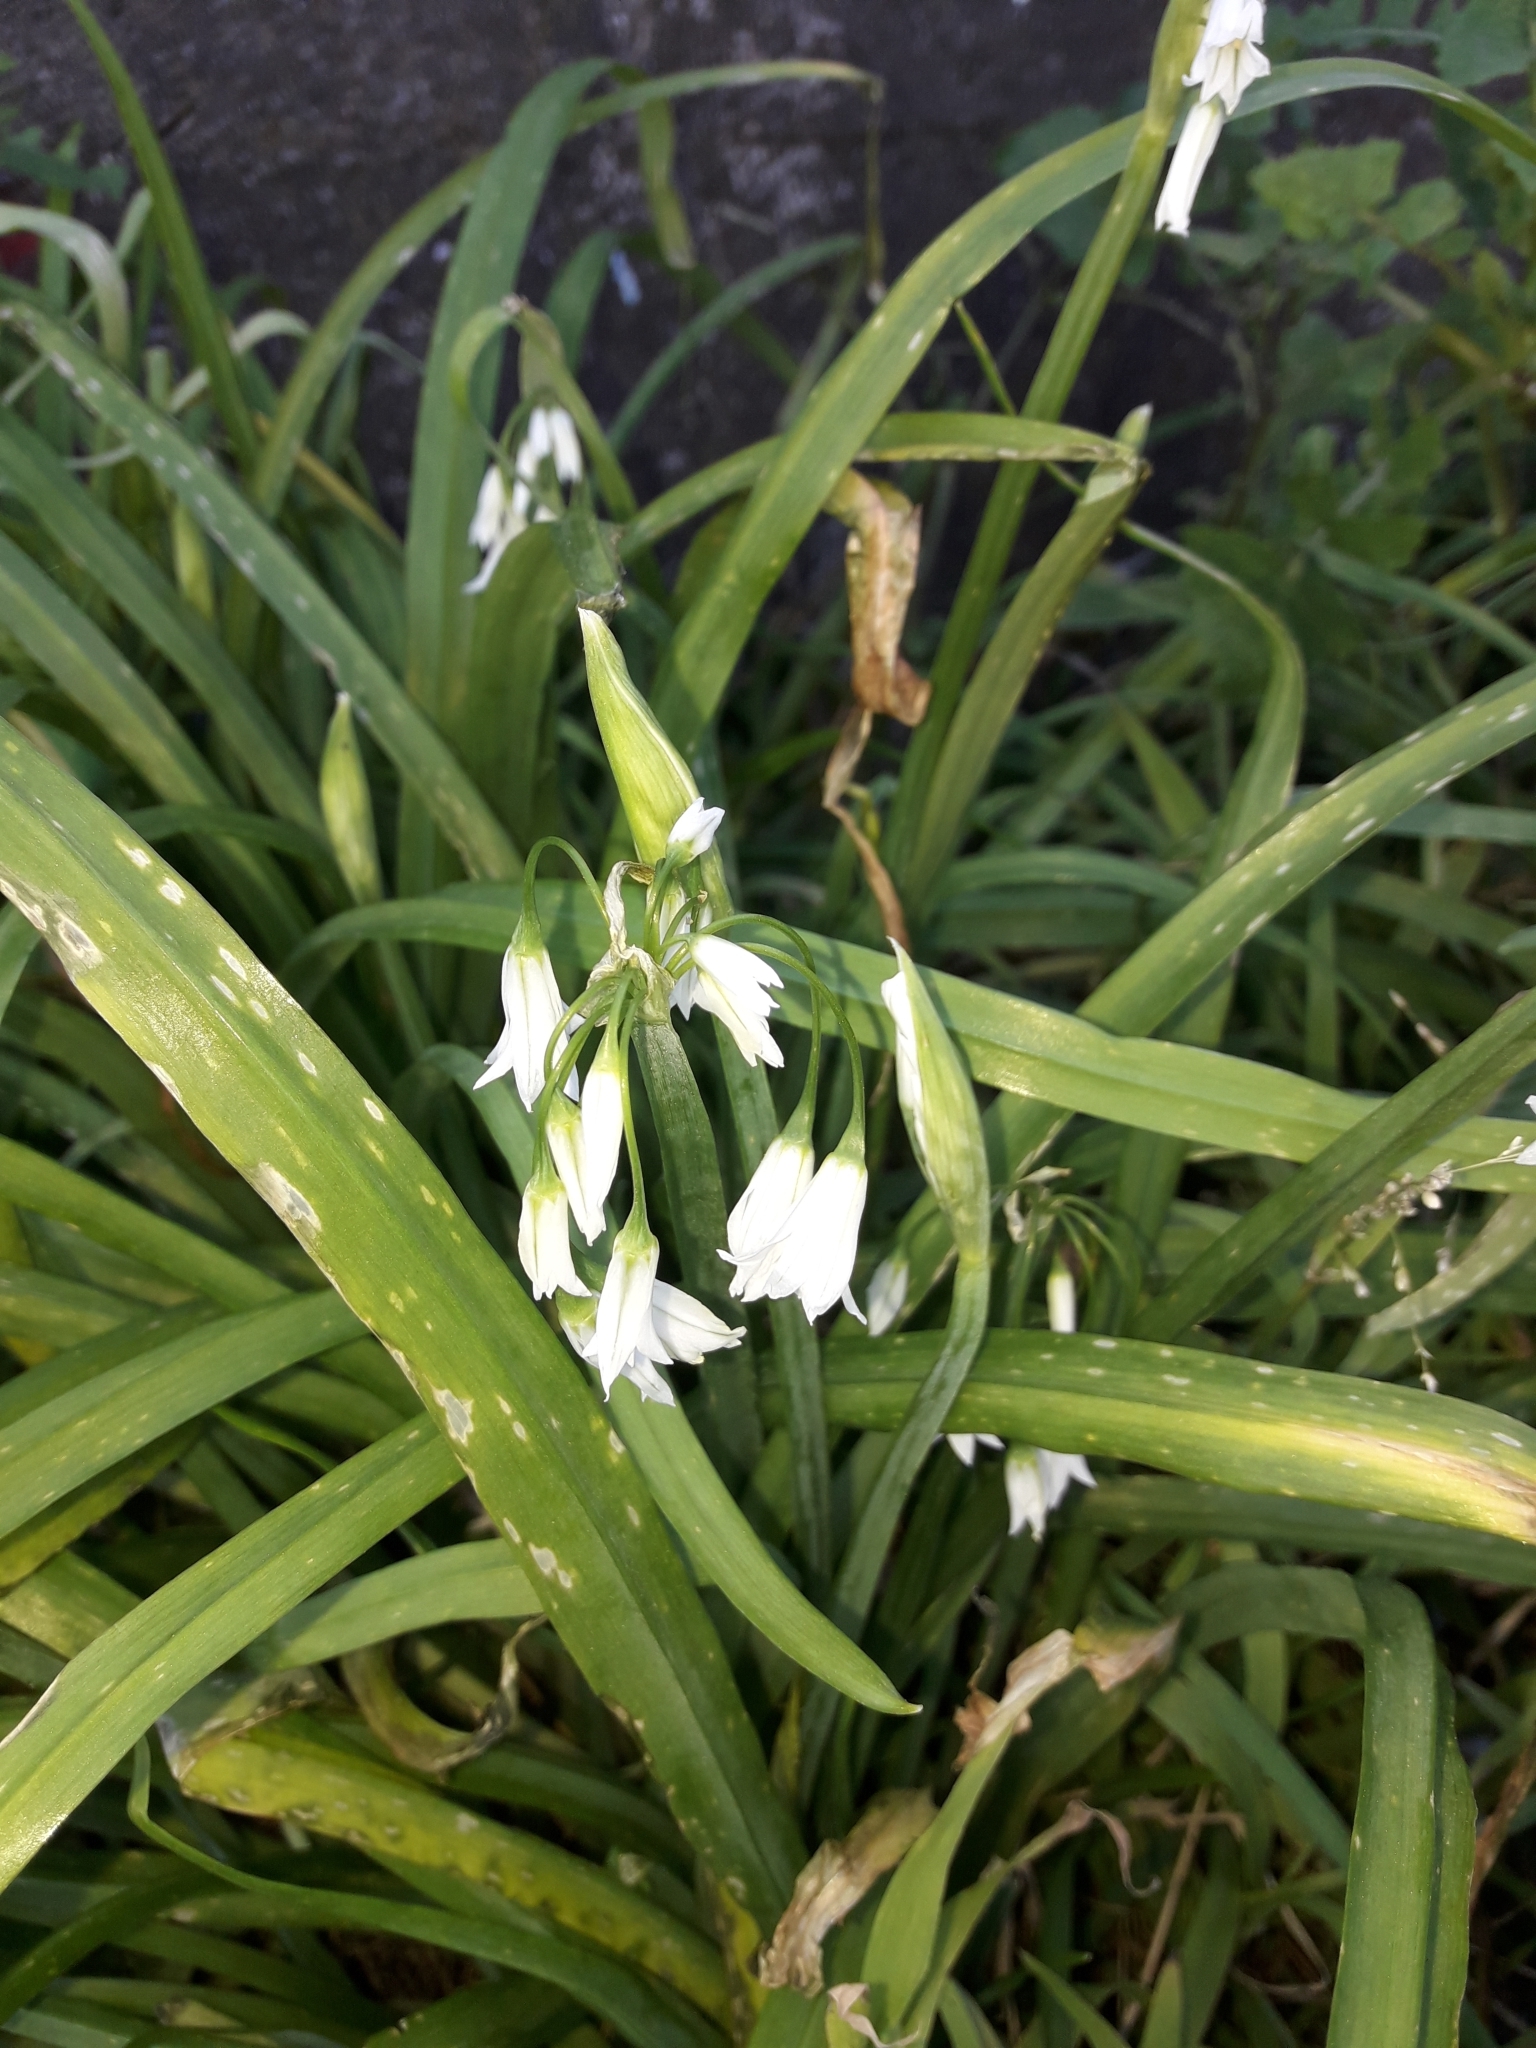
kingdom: Plantae
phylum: Tracheophyta
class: Liliopsida
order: Asparagales
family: Amaryllidaceae
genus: Allium
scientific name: Allium triquetrum
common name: Three-cornered garlic
